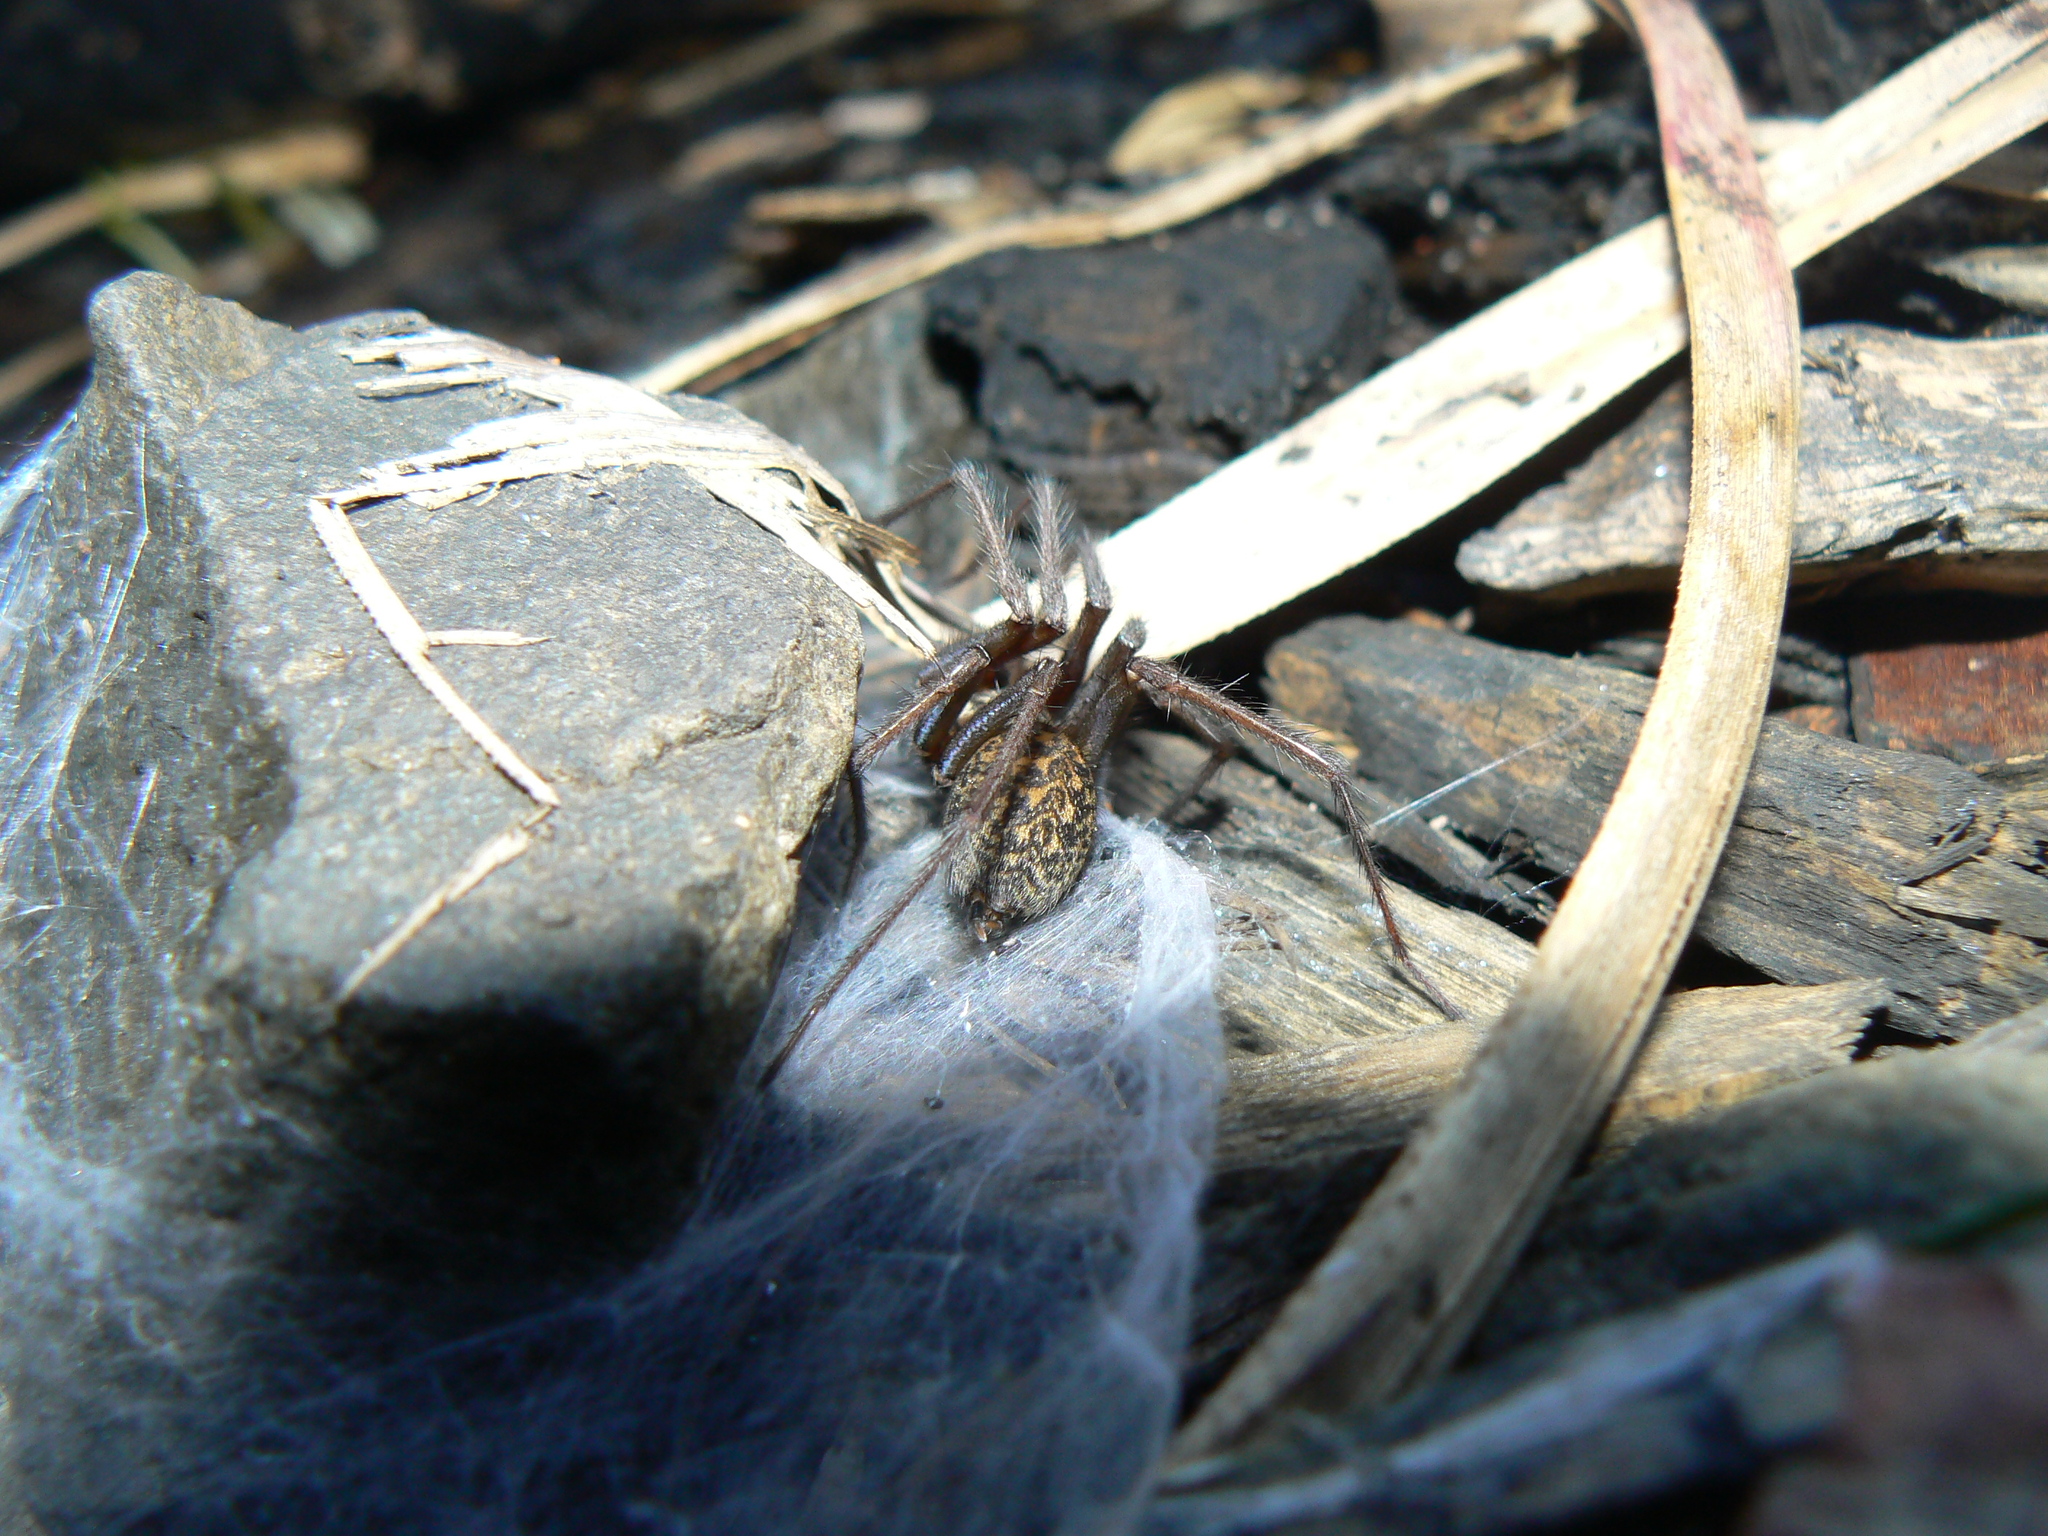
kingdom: Animalia
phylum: Arthropoda
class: Arachnida
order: Araneae
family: Agelenidae
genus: Eratigena
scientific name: Eratigena duellica
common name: Giant house spider
